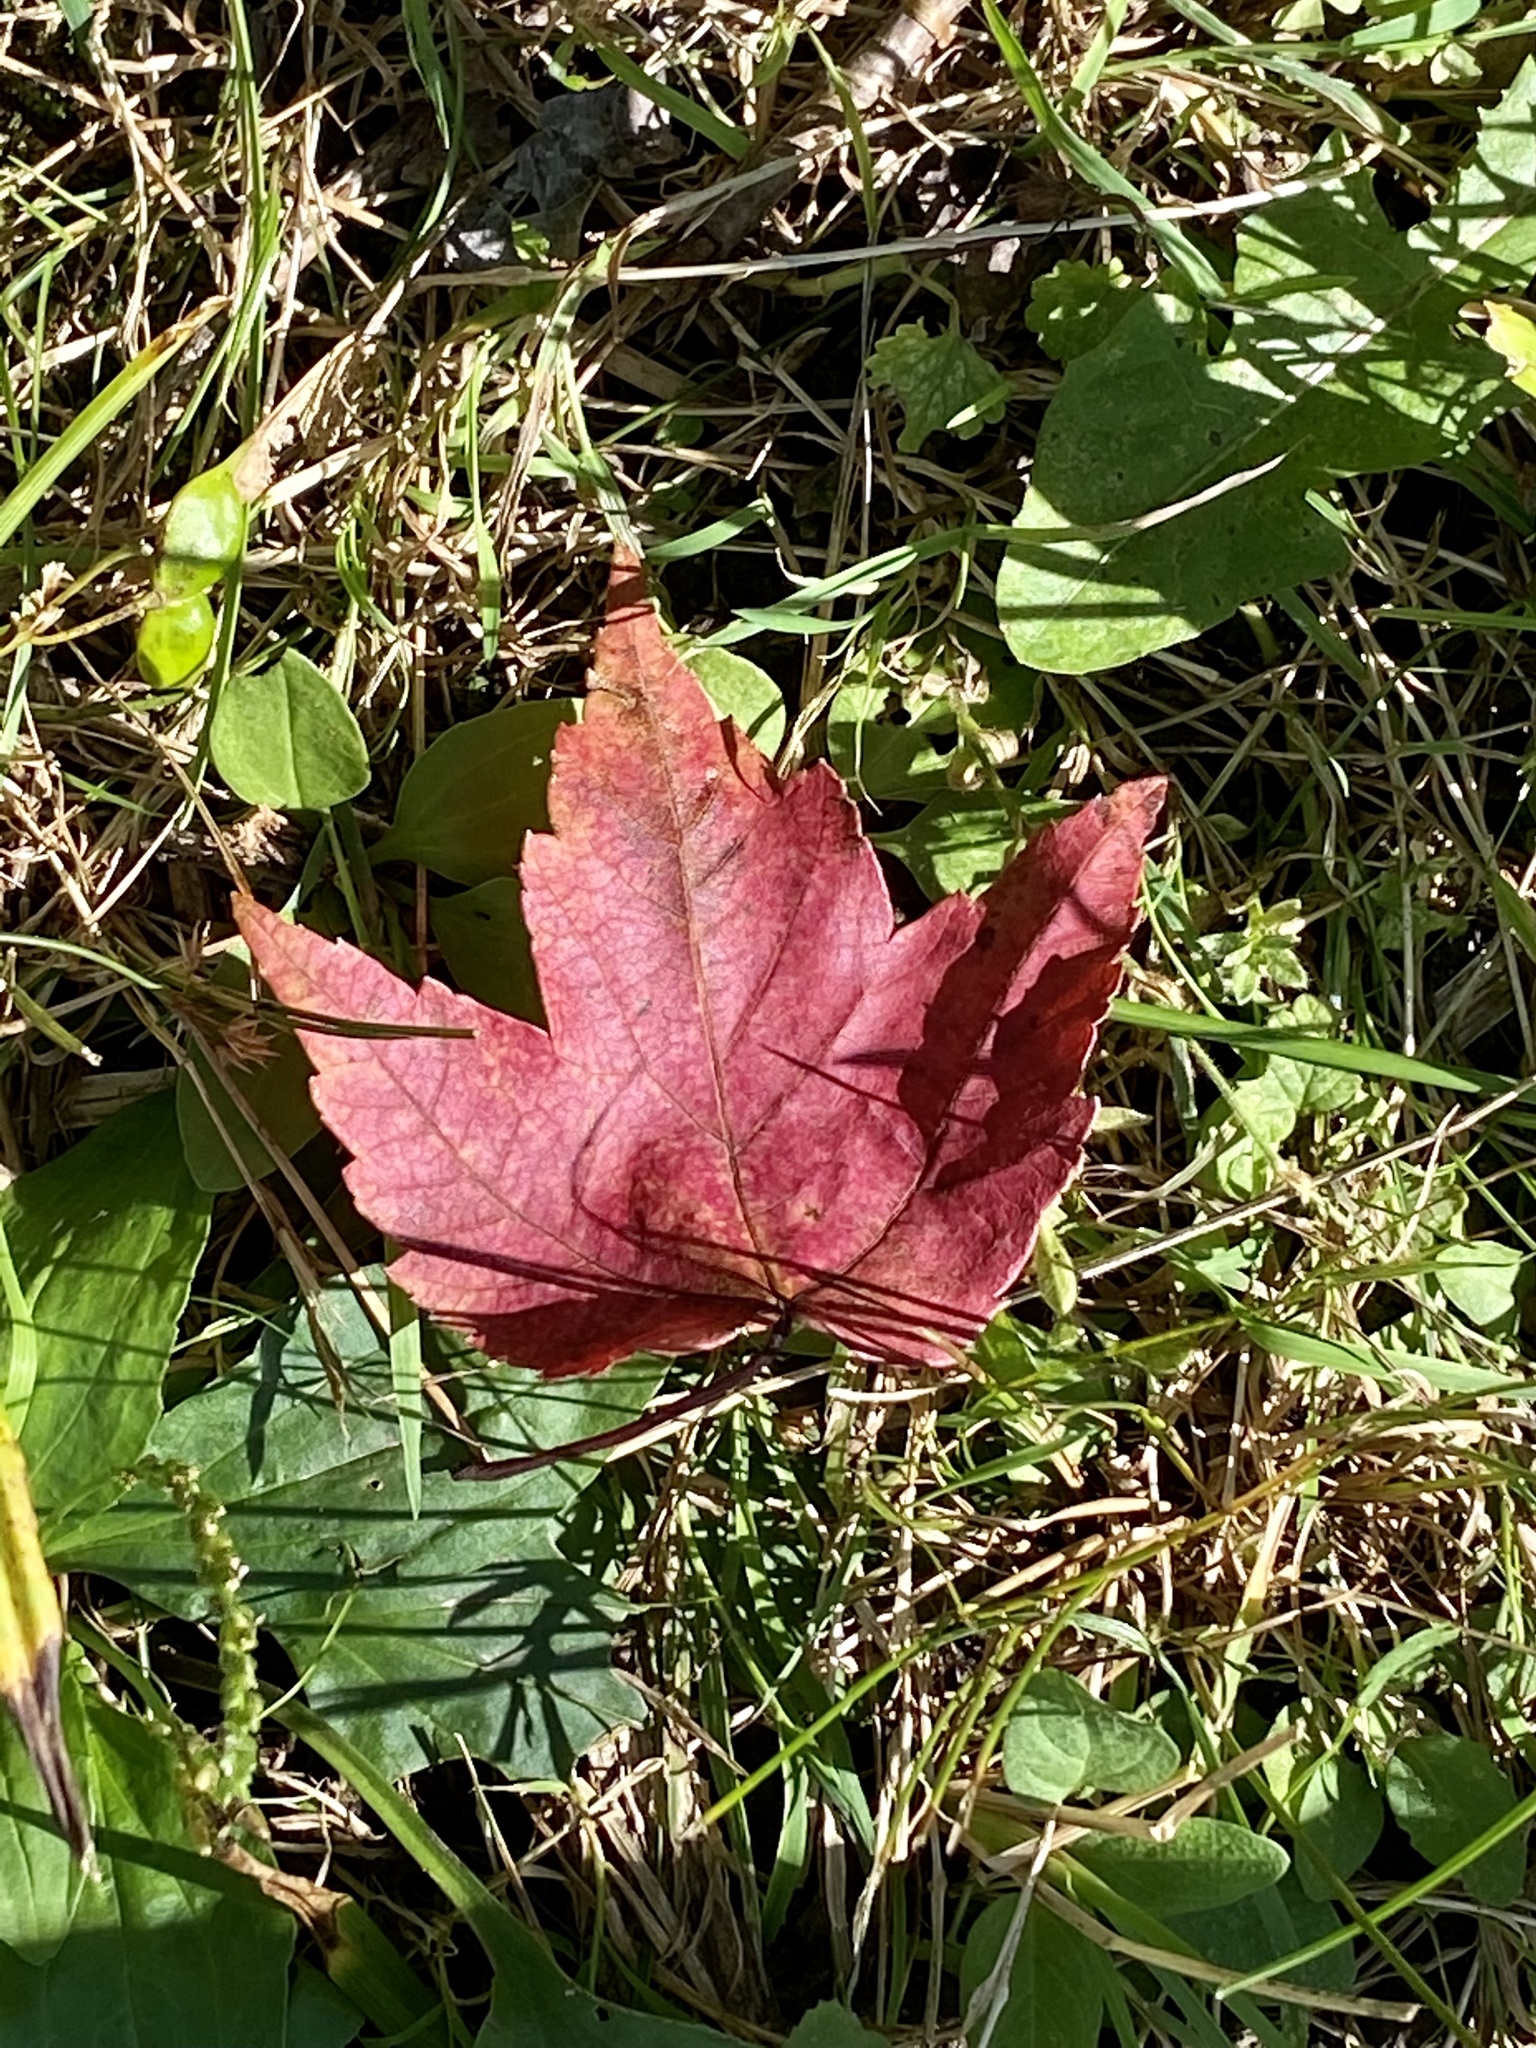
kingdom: Plantae
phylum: Tracheophyta
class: Magnoliopsida
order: Sapindales
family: Sapindaceae
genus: Acer
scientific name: Acer rubrum
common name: Red maple
